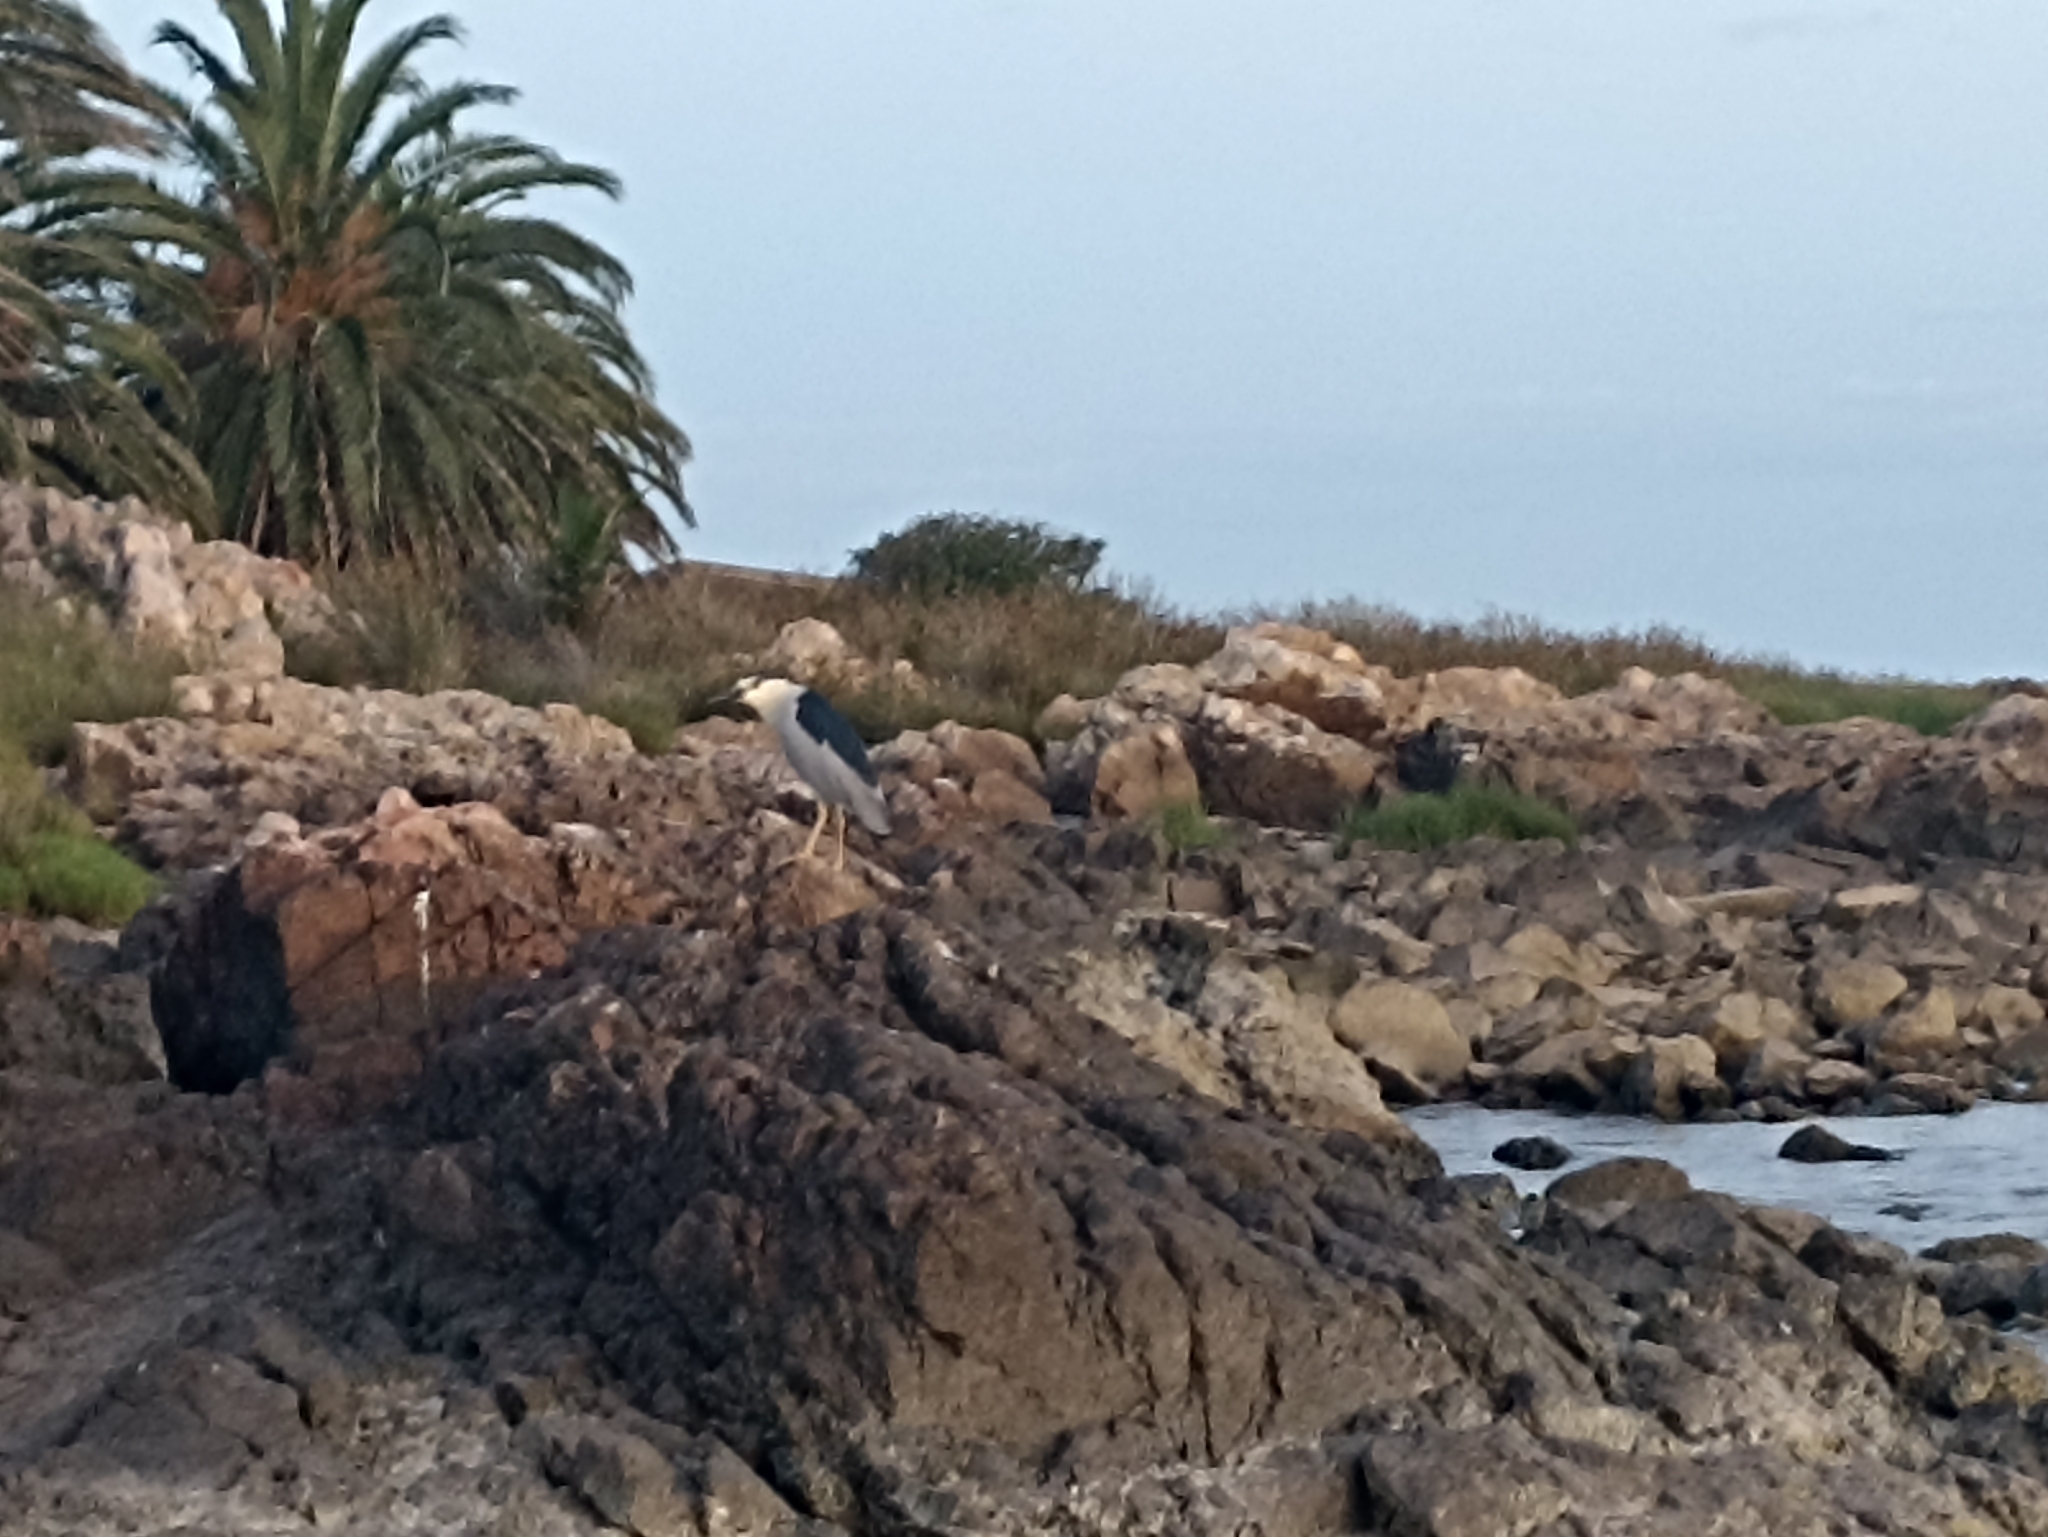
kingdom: Animalia
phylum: Chordata
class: Aves
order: Pelecaniformes
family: Ardeidae
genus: Nycticorax
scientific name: Nycticorax nycticorax
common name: Black-crowned night heron
